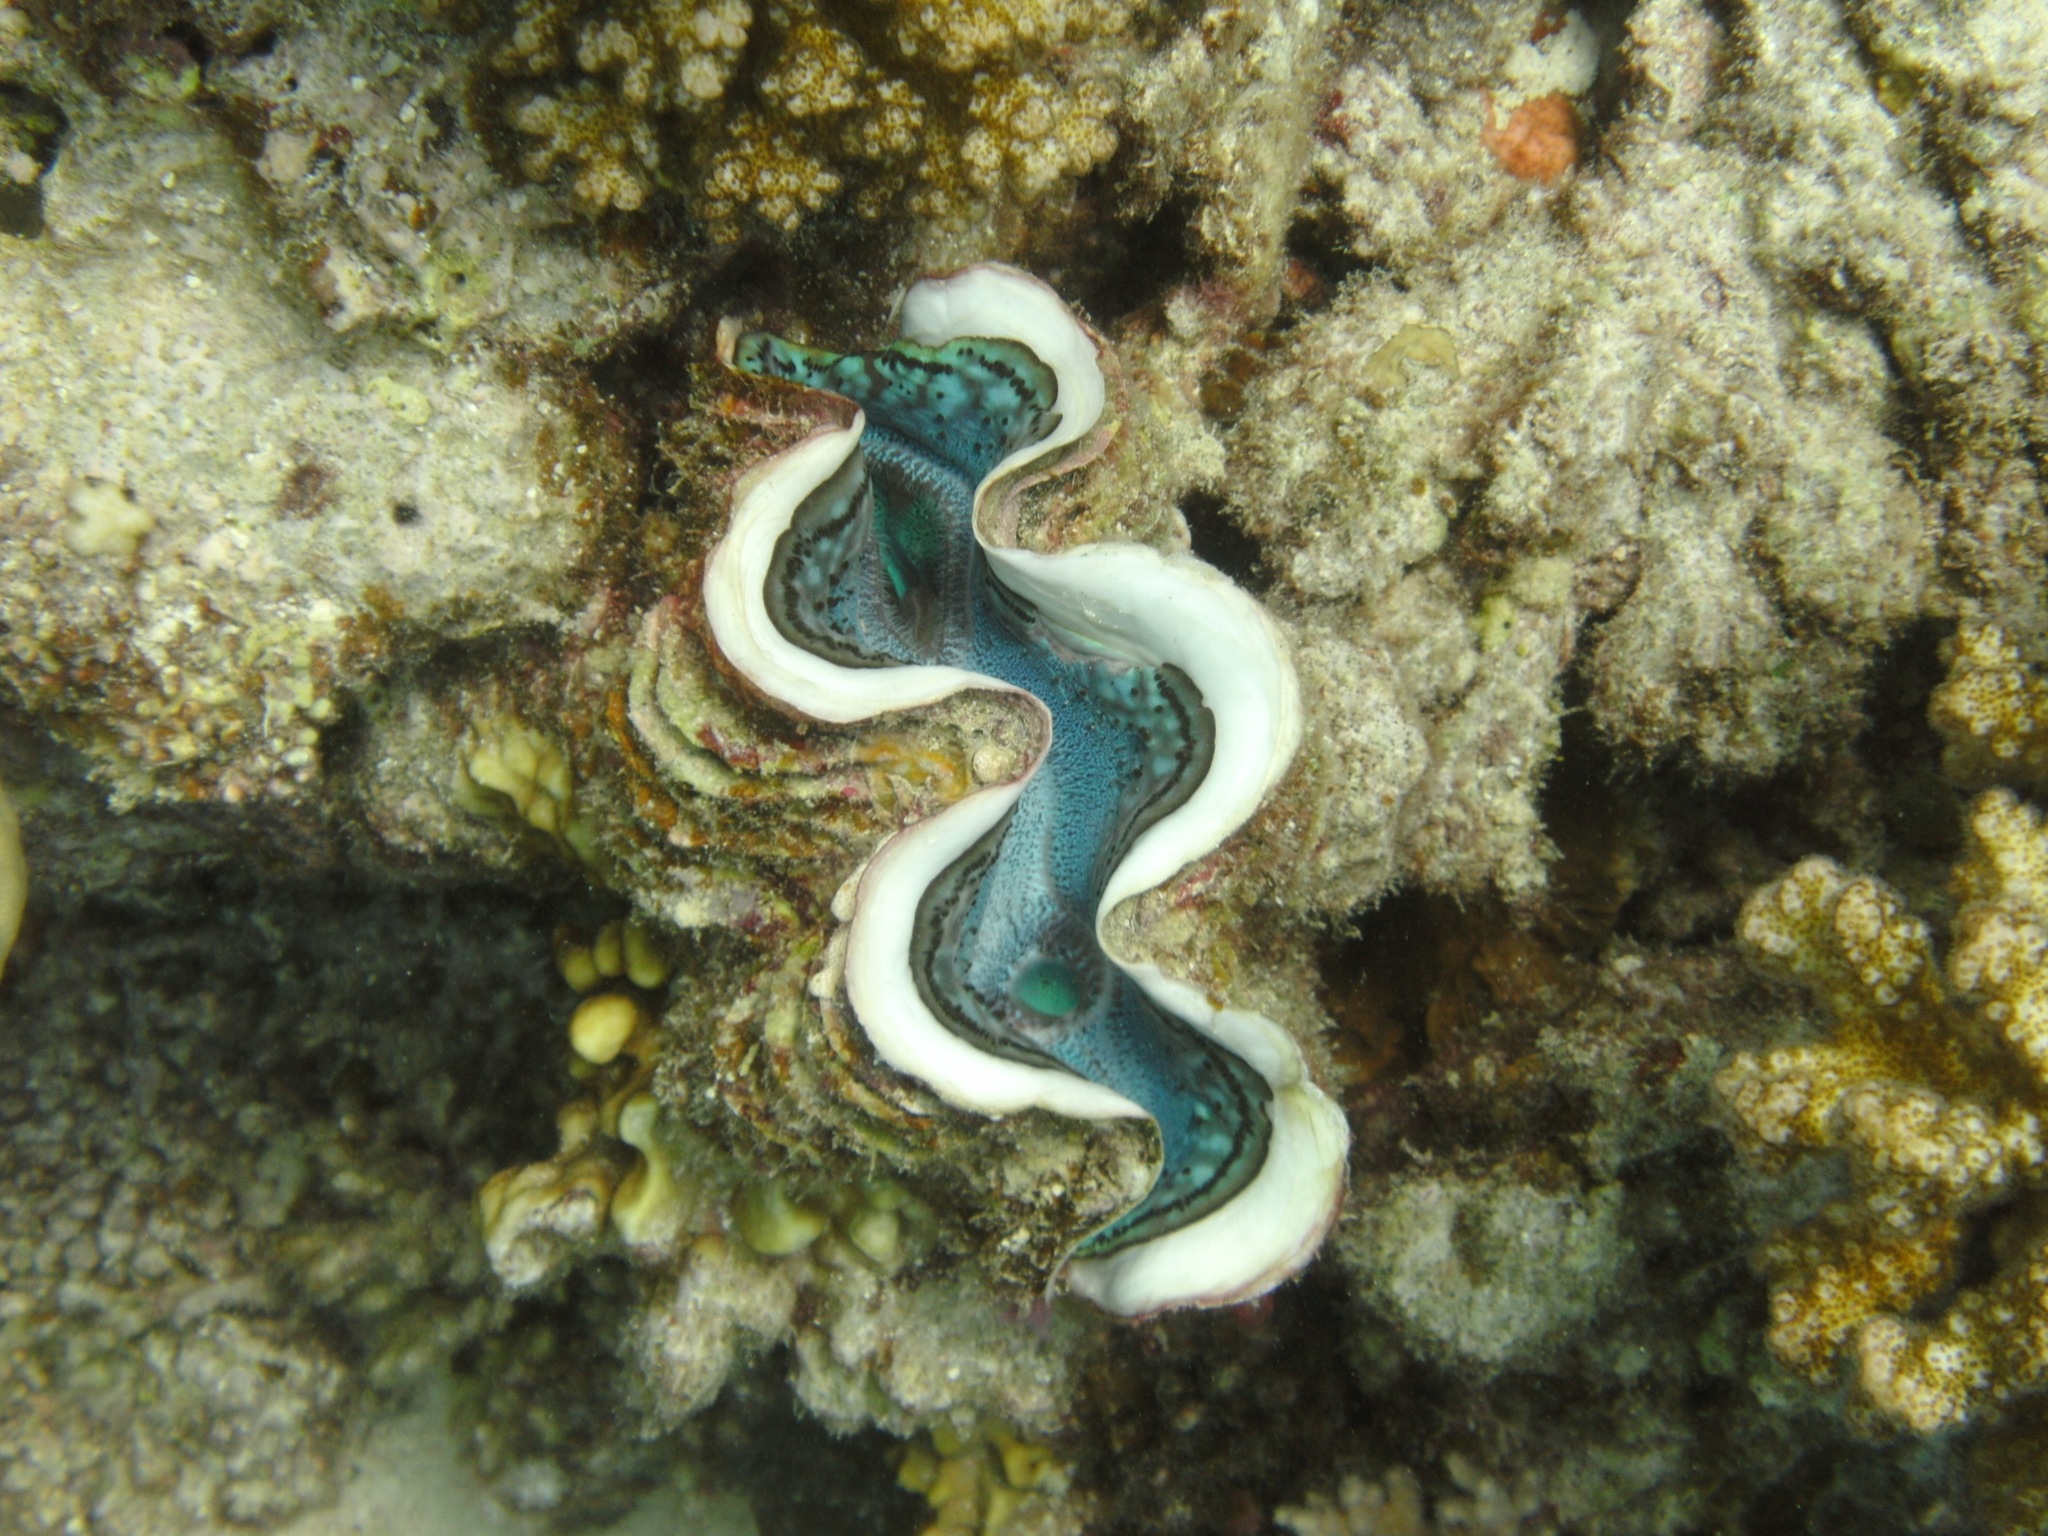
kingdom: Animalia
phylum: Mollusca
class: Bivalvia
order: Cardiida
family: Cardiidae
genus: Tridacna
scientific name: Tridacna maxima
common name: Small giant clam
